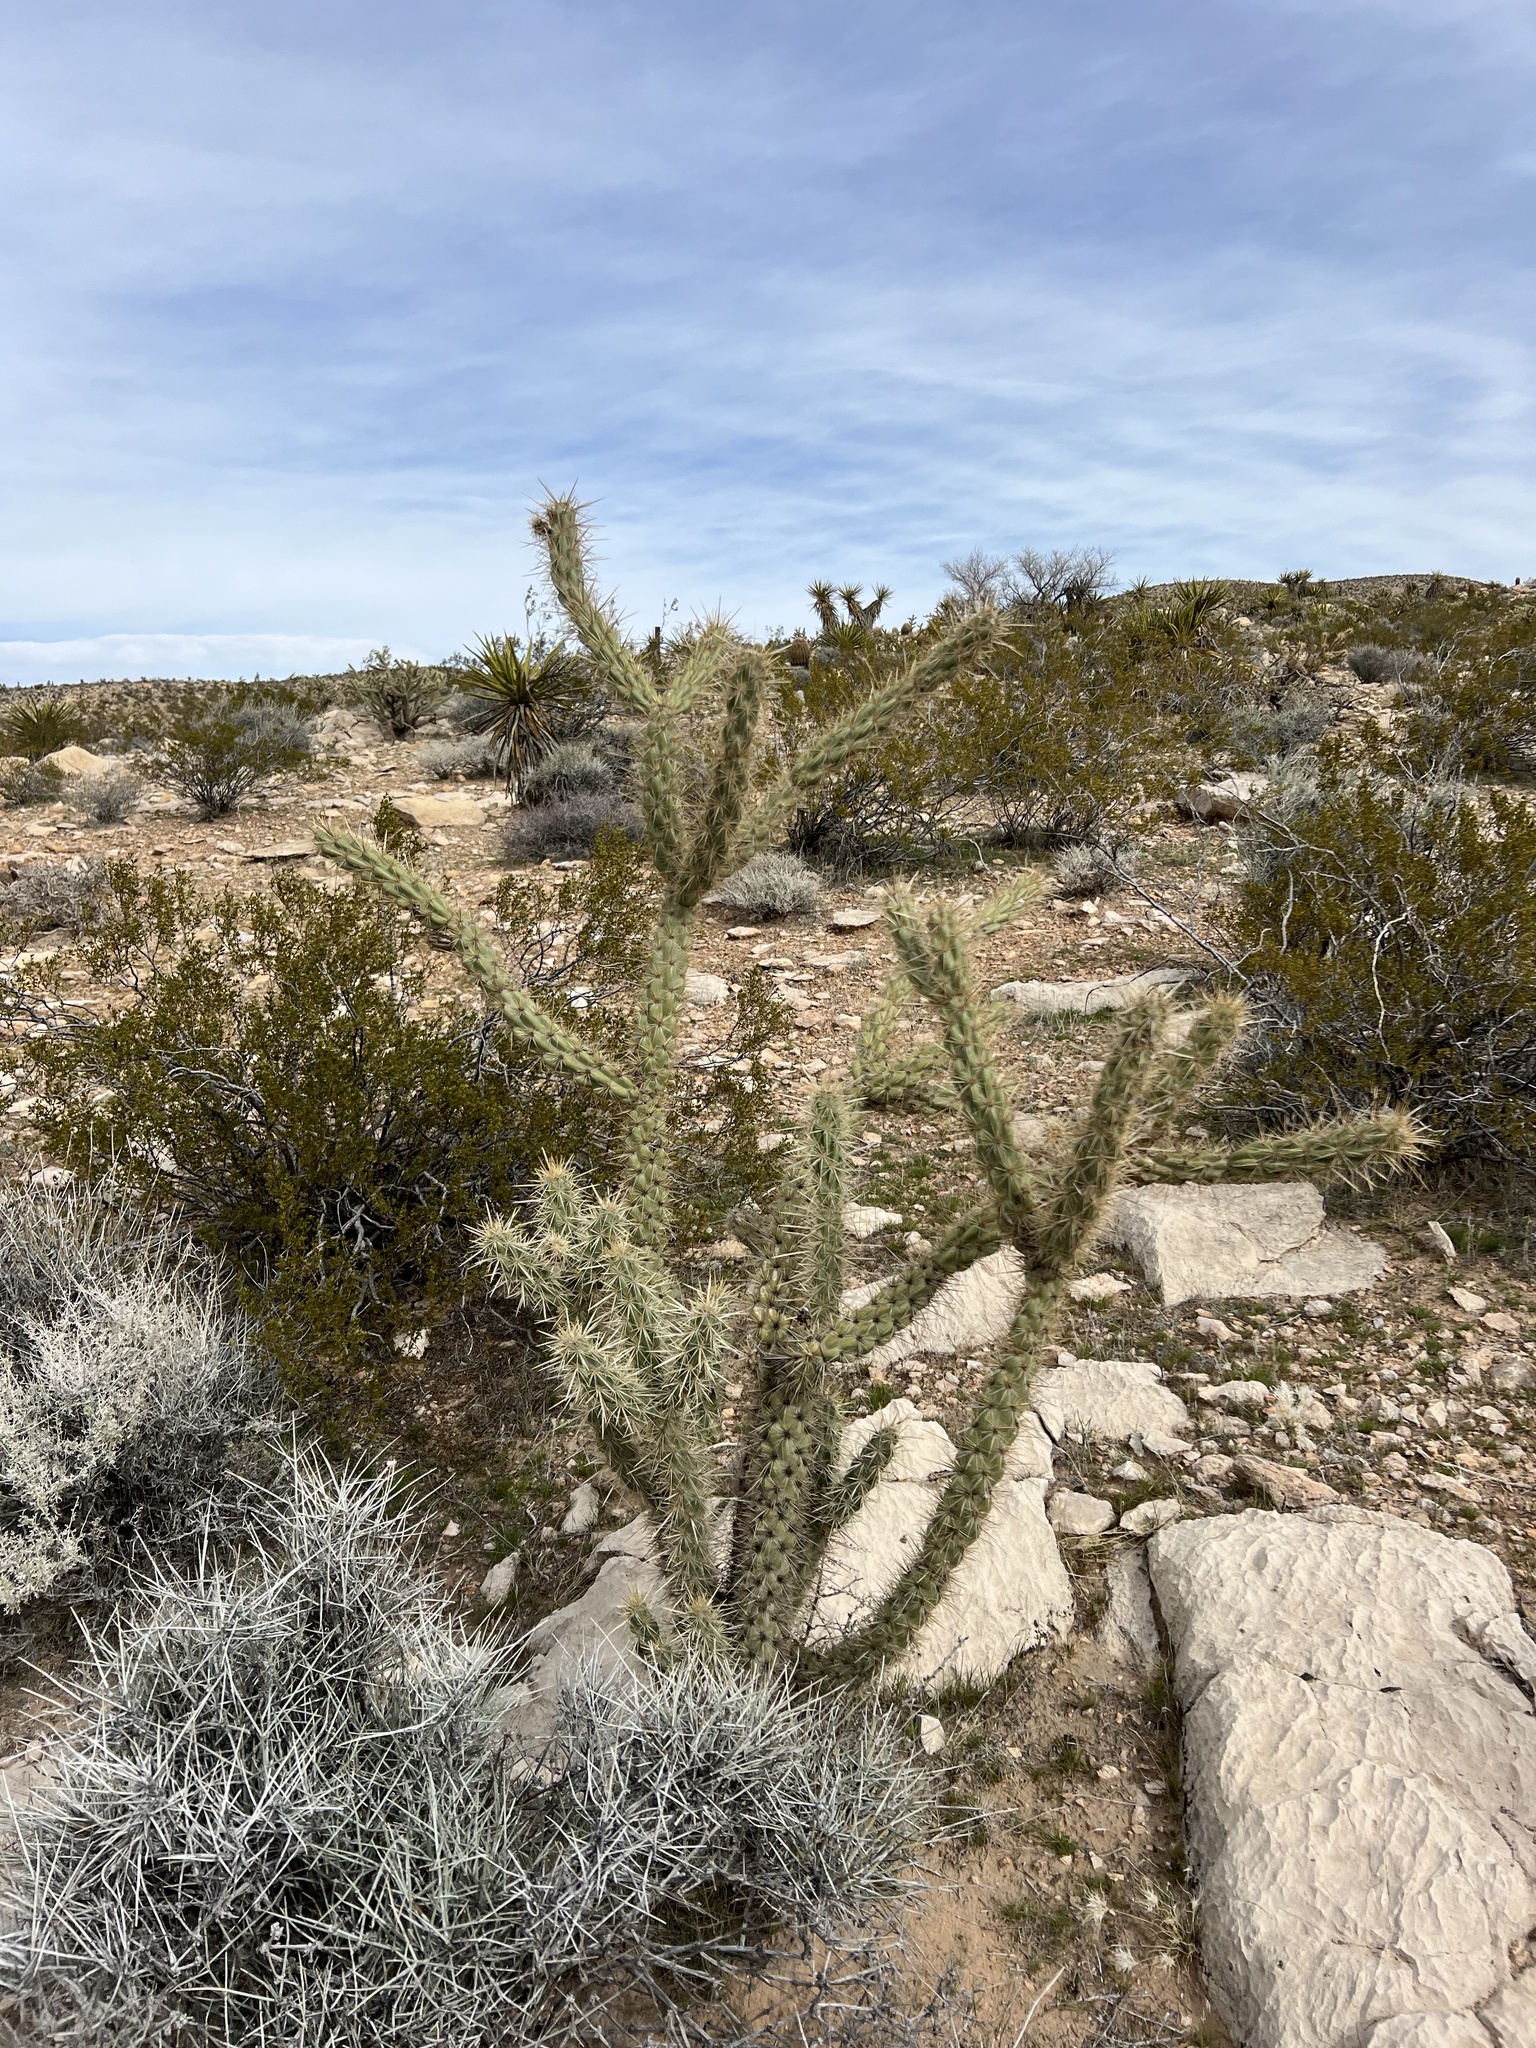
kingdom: Plantae
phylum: Tracheophyta
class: Magnoliopsida
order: Caryophyllales
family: Cactaceae
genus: Cylindropuntia
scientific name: Cylindropuntia acanthocarpa
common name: Buckhorn cholla
